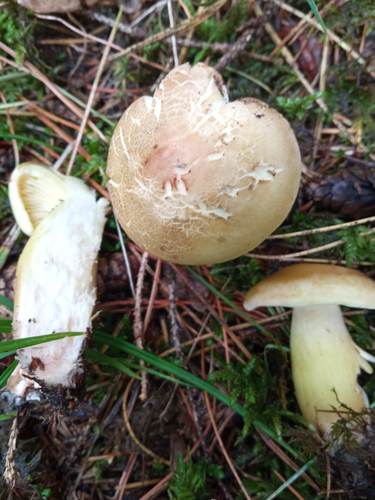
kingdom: Fungi
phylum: Basidiomycota
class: Agaricomycetes
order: Agaricales
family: Tricholomataceae
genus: Tricholoma
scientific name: Tricholoma
